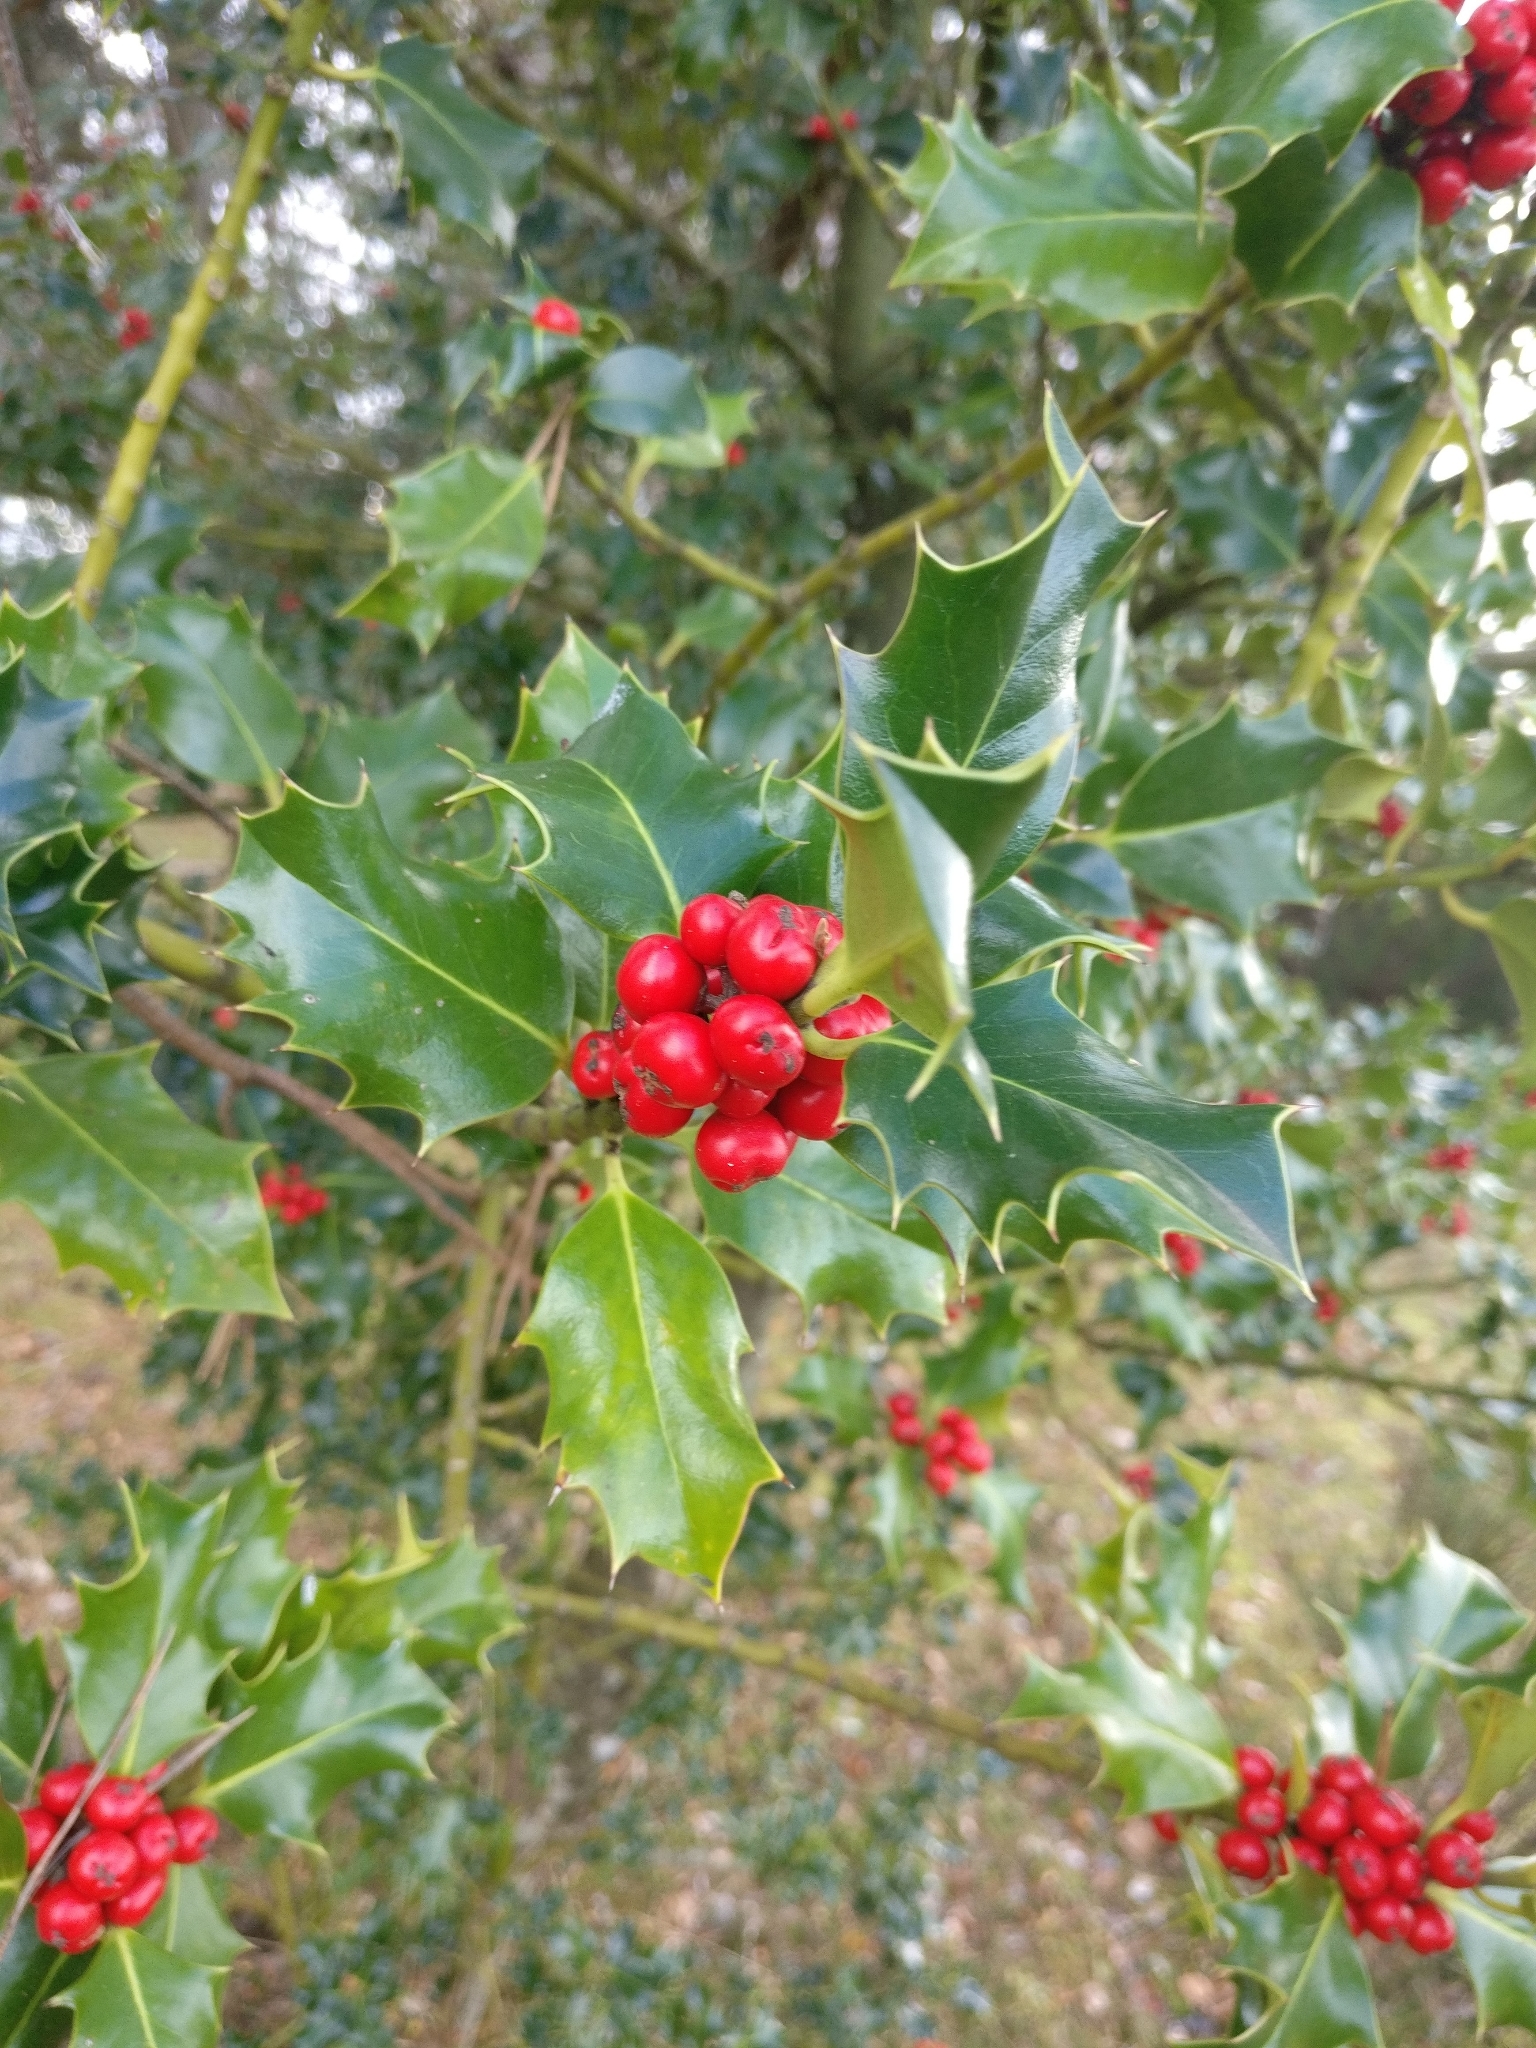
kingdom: Plantae
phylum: Tracheophyta
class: Magnoliopsida
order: Aquifoliales
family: Aquifoliaceae
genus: Ilex
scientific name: Ilex aquifolium
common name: English holly
